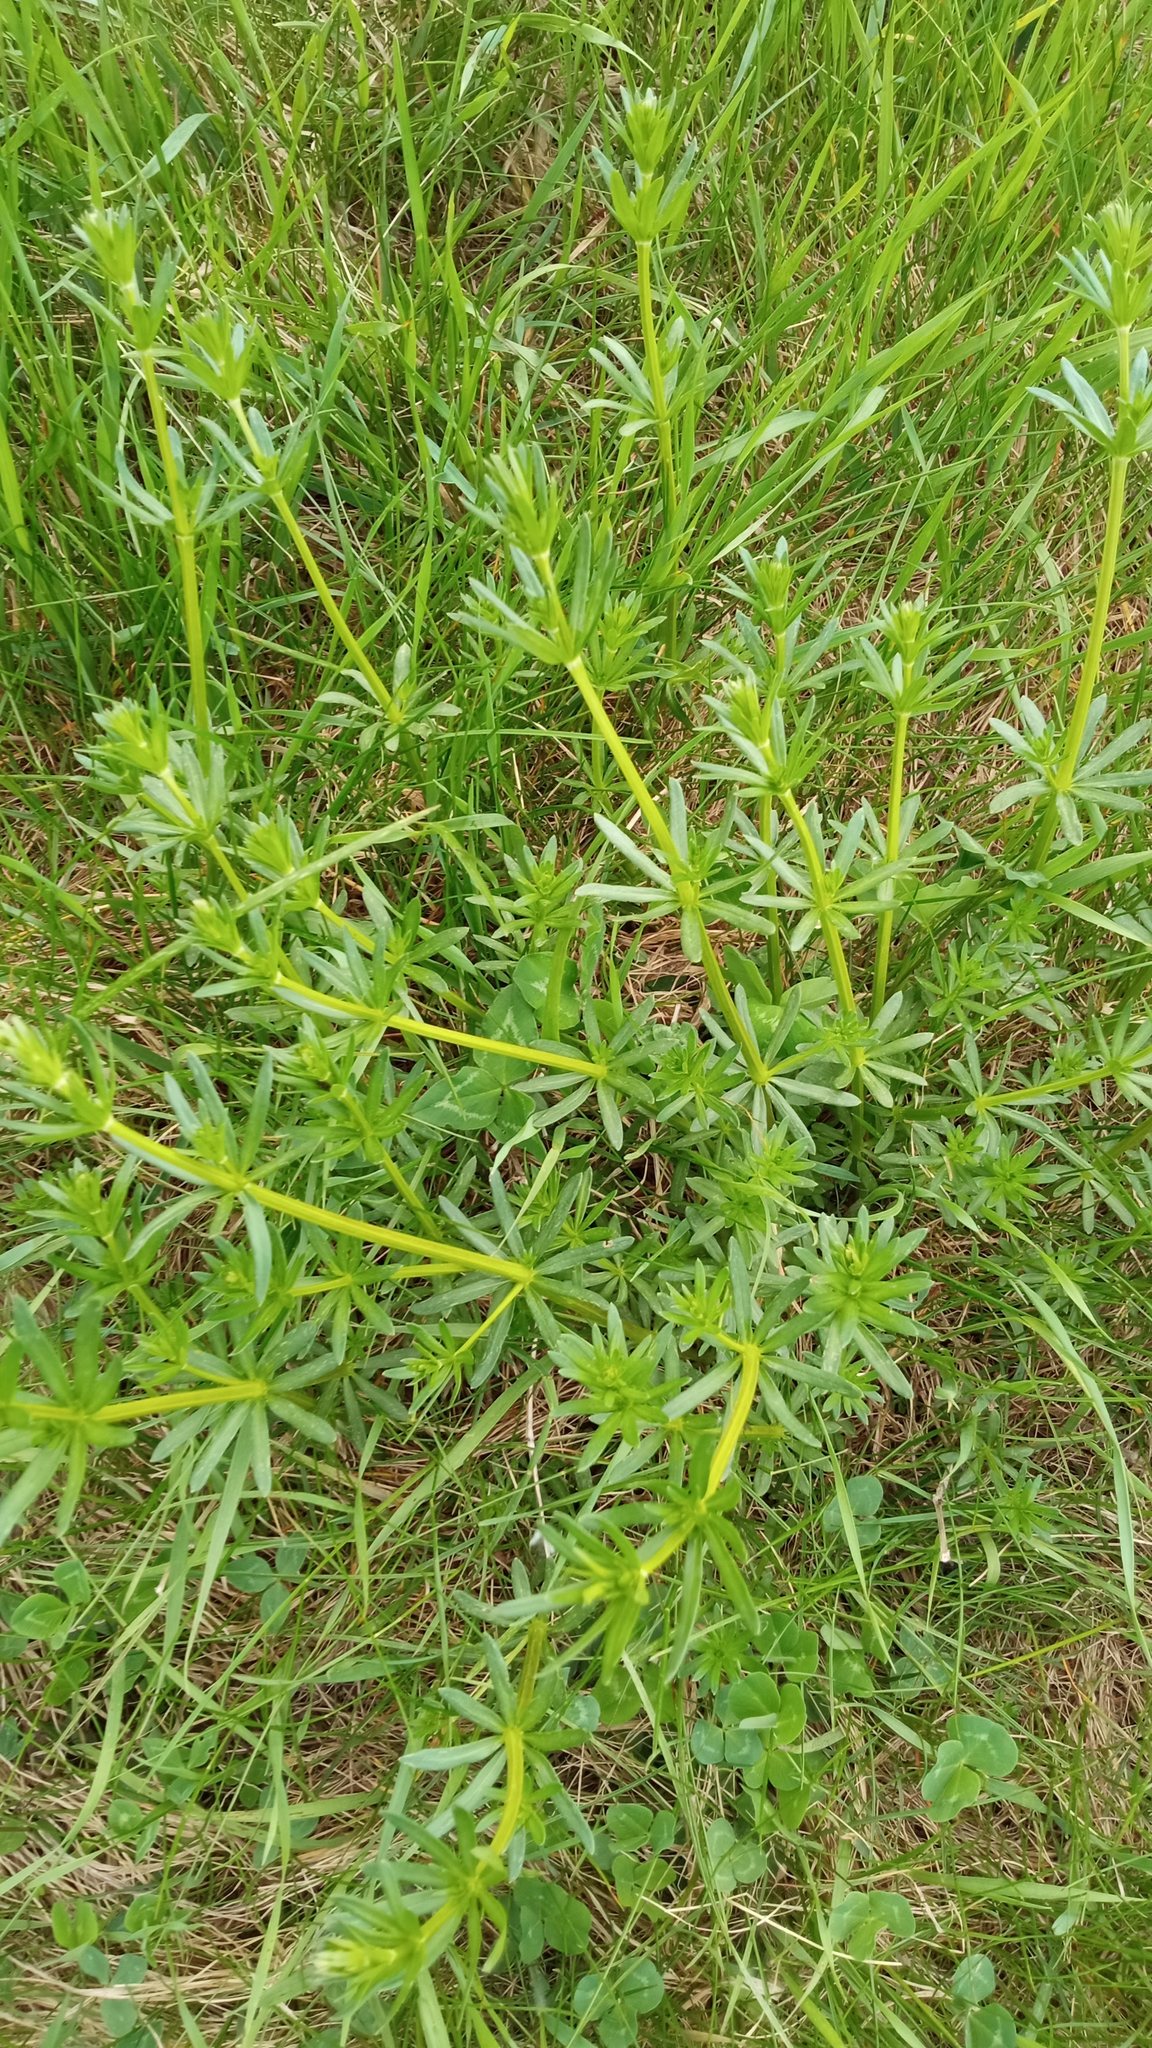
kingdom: Plantae
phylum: Tracheophyta
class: Magnoliopsida
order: Gentianales
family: Rubiaceae
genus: Galium
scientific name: Galium mollugo
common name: Hedge bedstraw
